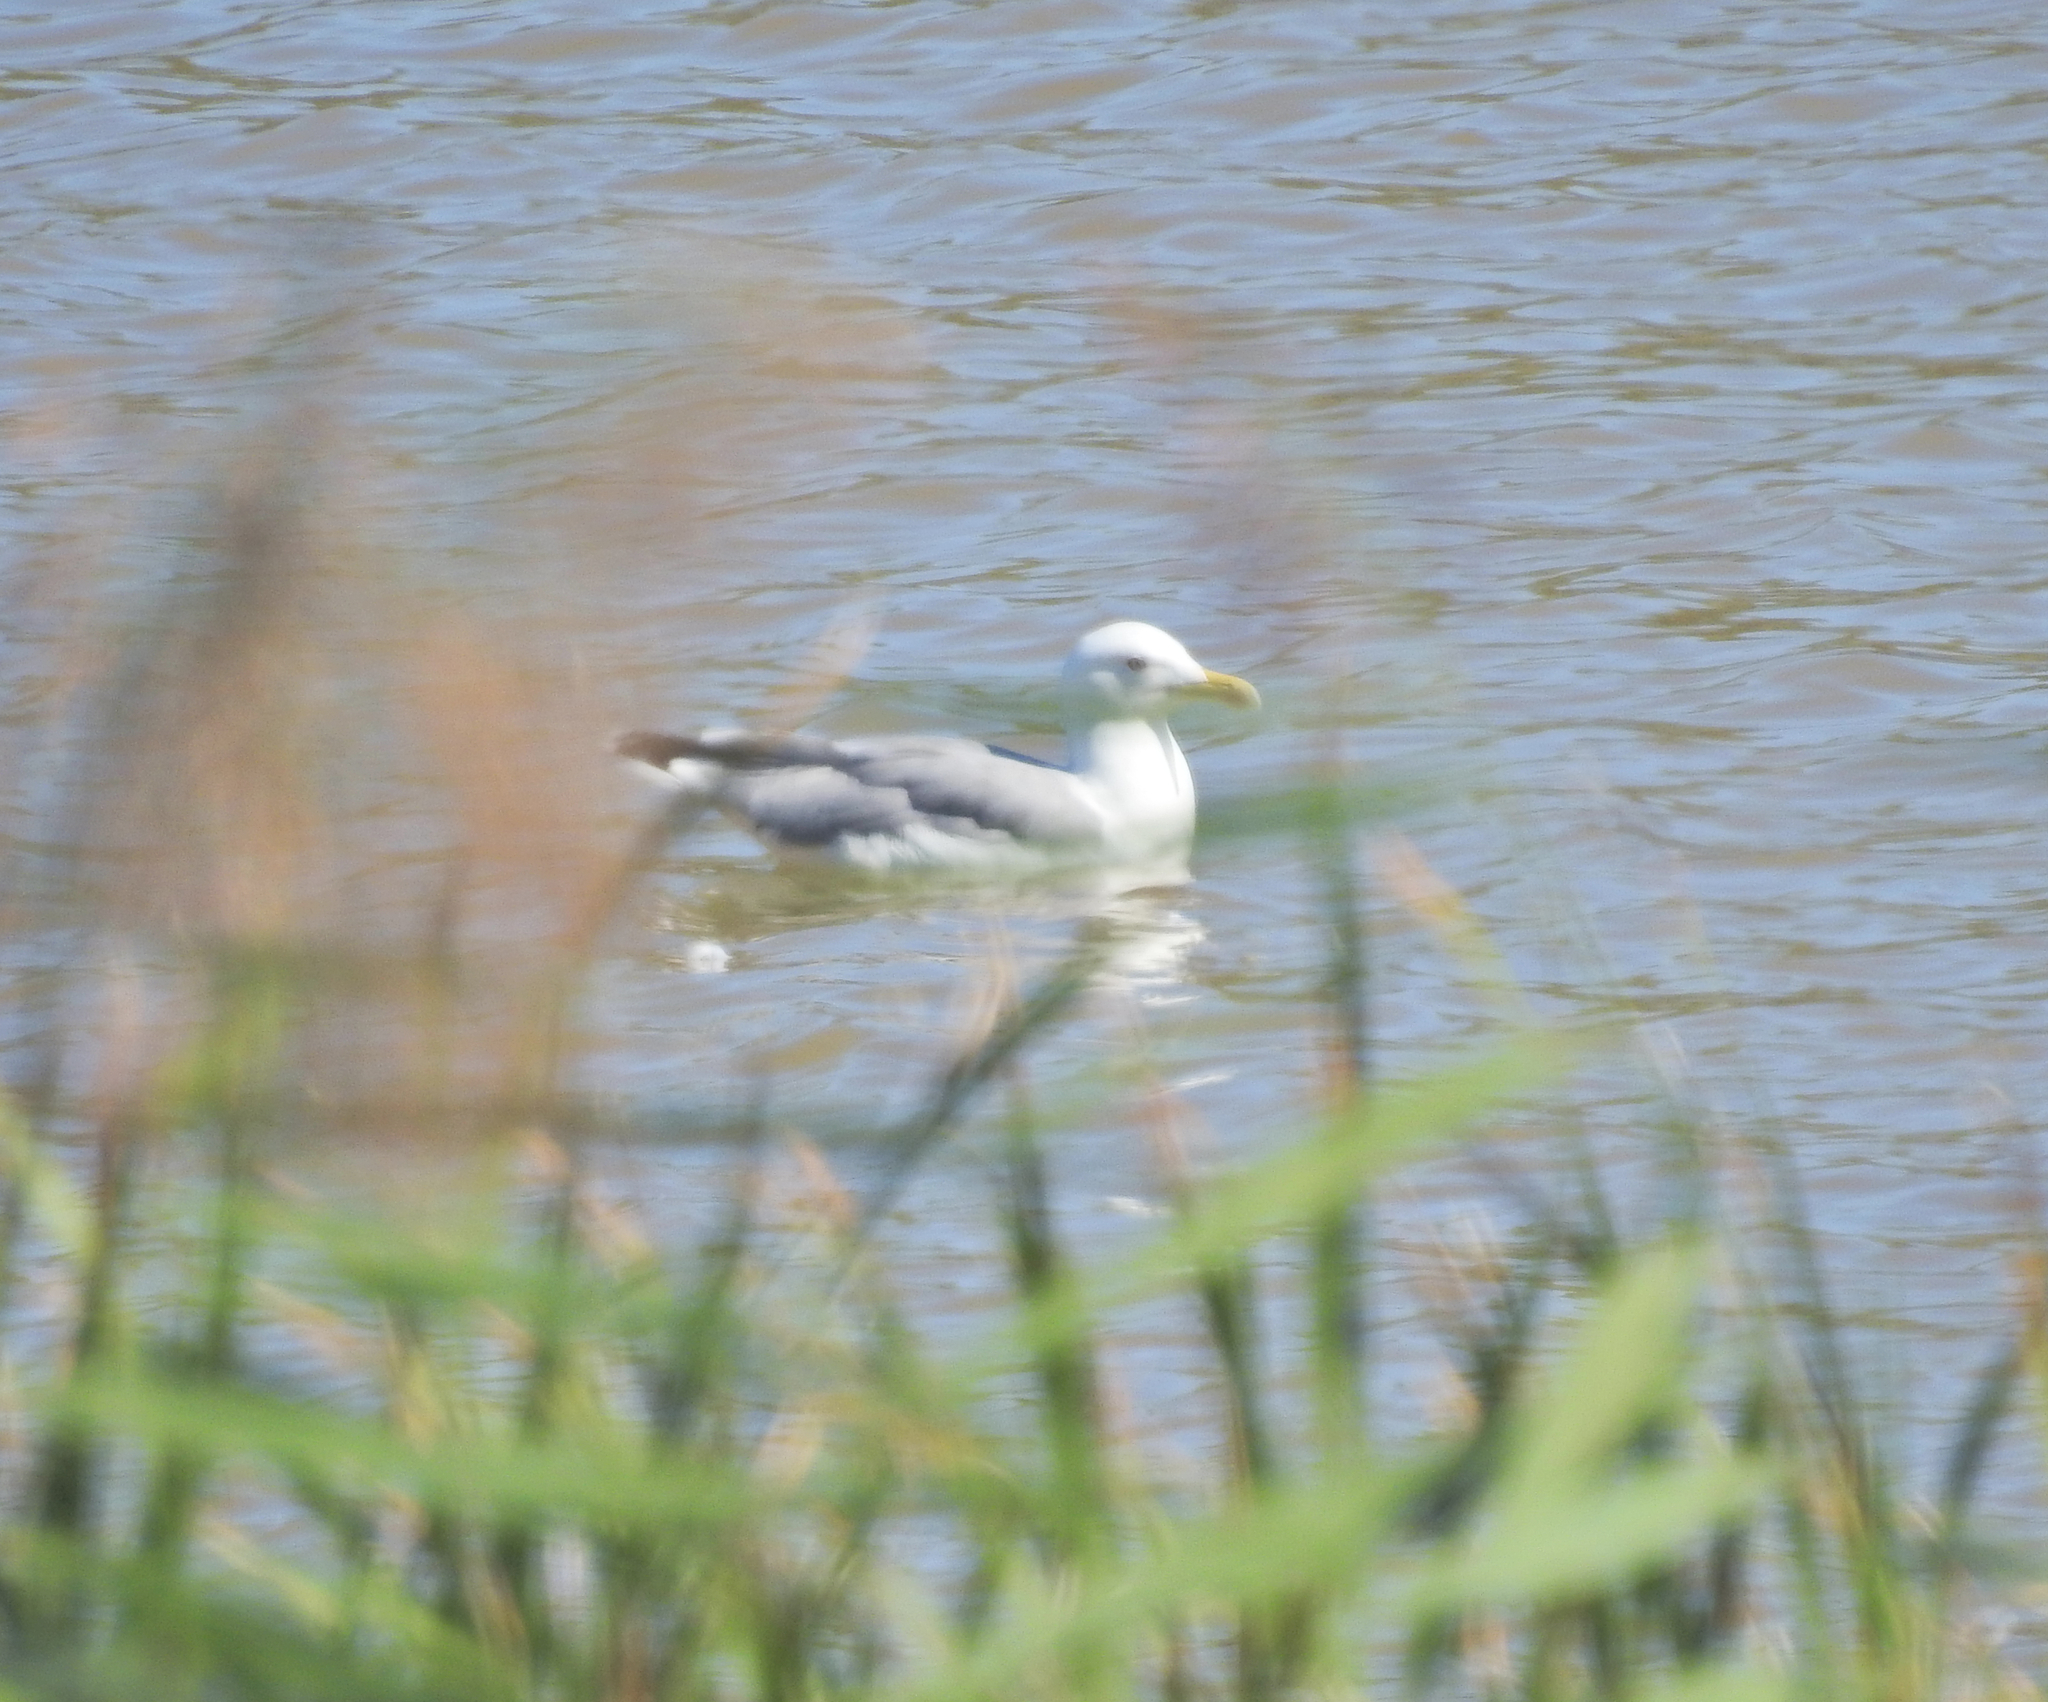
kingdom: Animalia
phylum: Chordata
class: Aves
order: Charadriiformes
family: Laridae
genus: Larus
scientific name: Larus michahellis
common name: Yellow-legged gull
